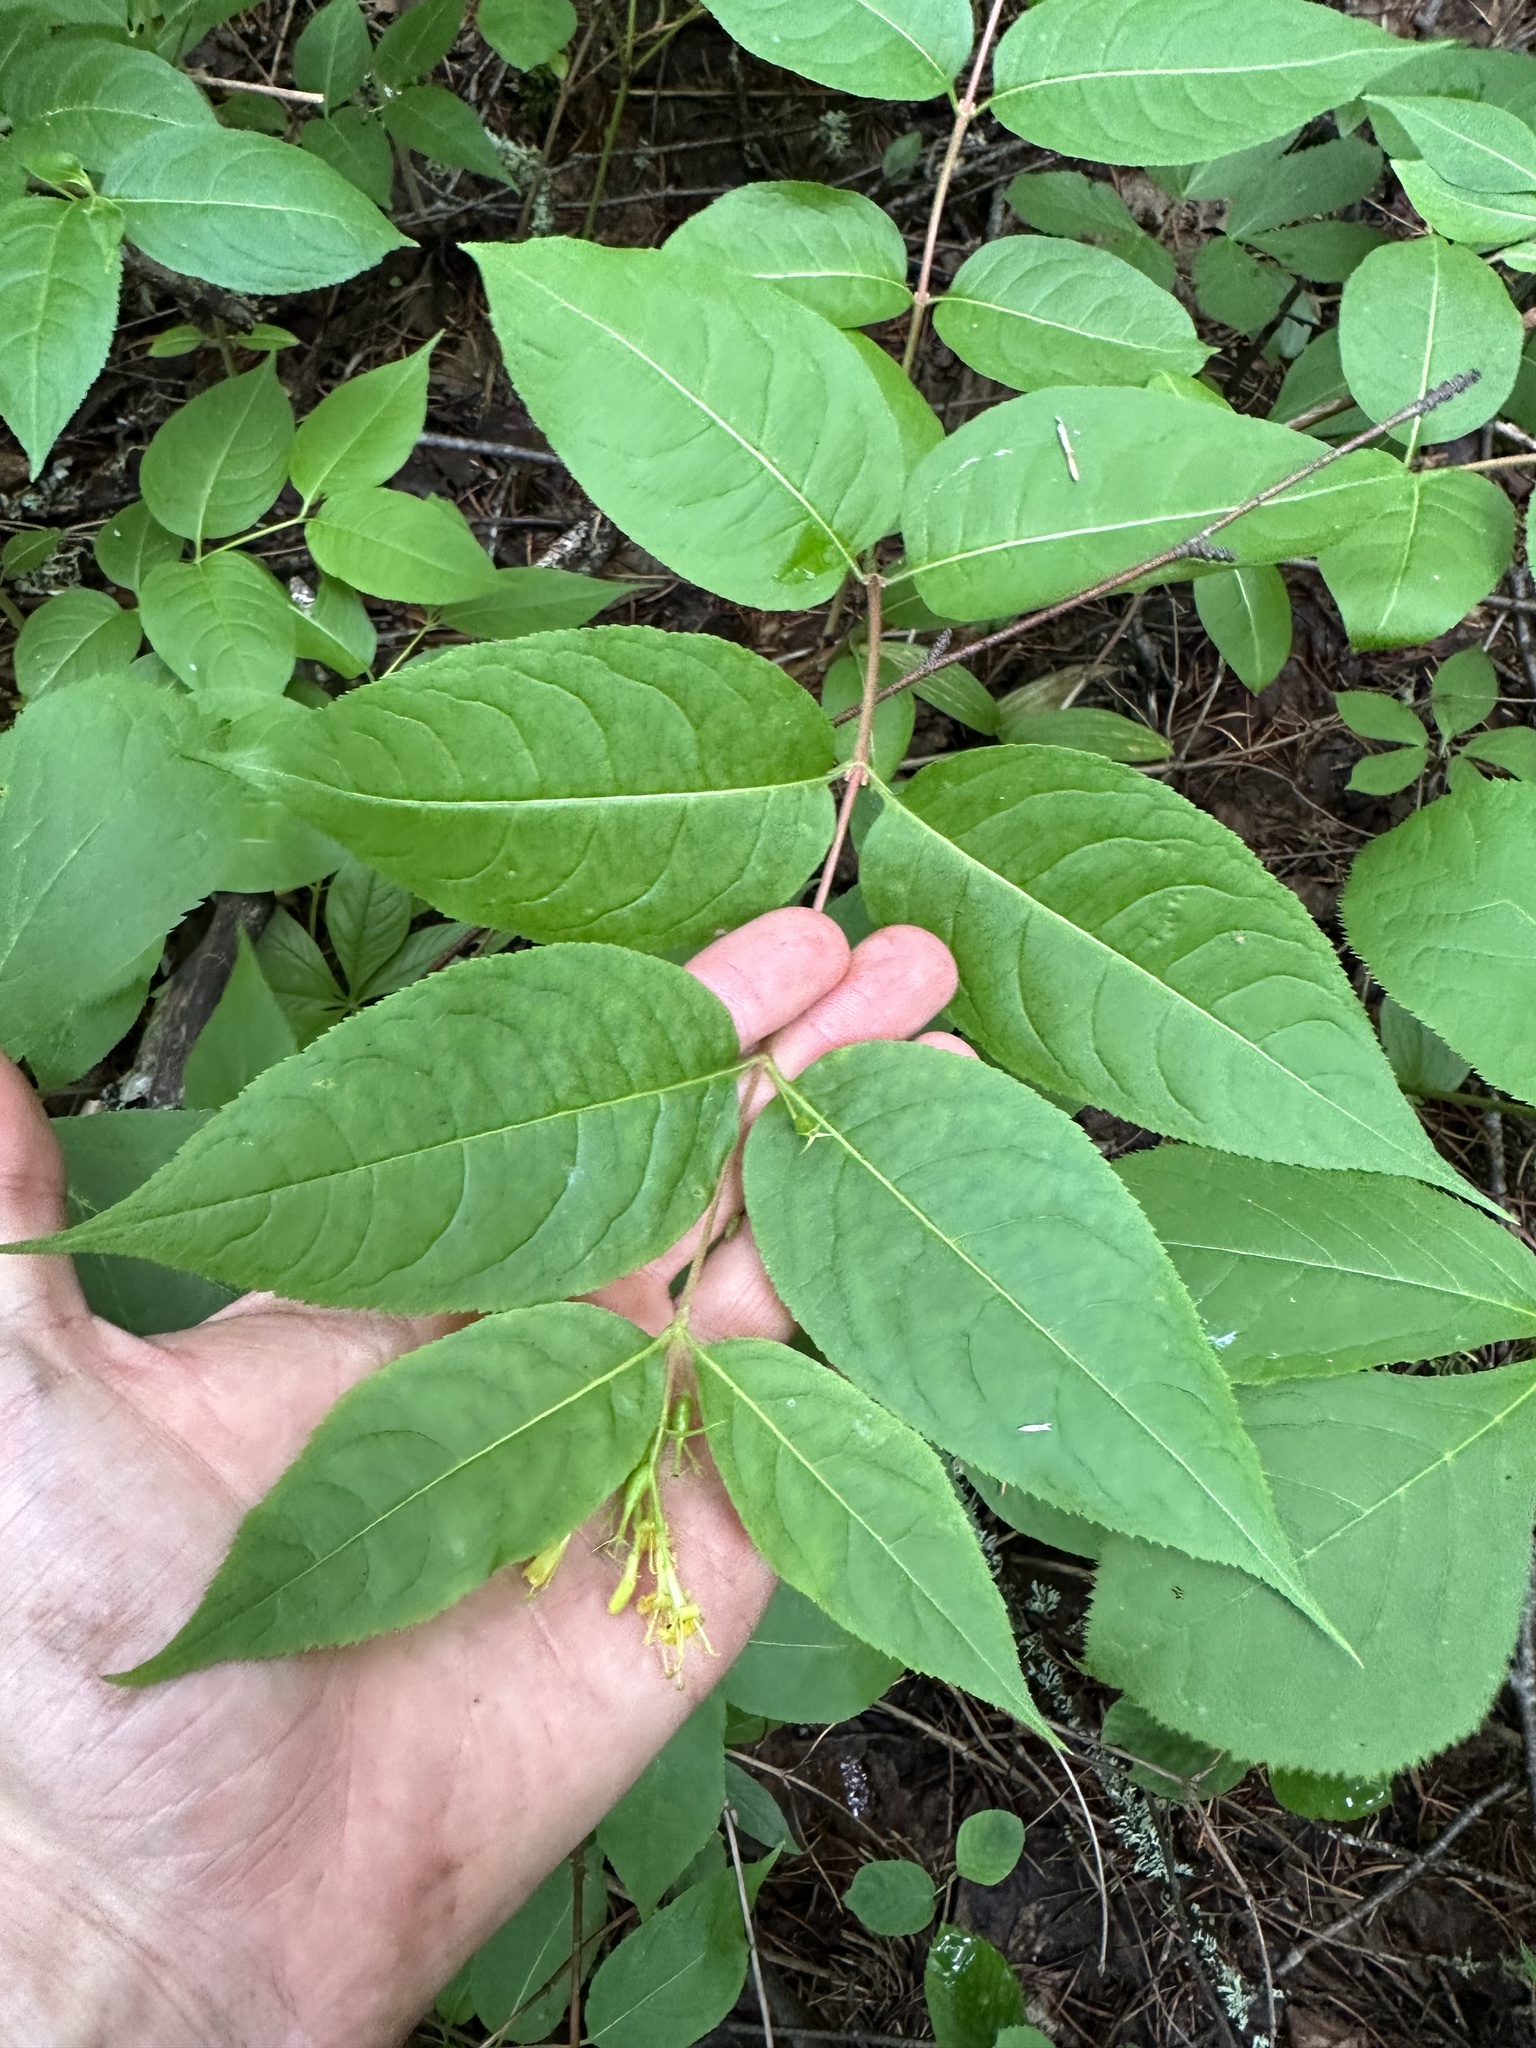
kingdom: Plantae
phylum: Tracheophyta
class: Magnoliopsida
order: Dipsacales
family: Caprifoliaceae
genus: Diervilla
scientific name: Diervilla lonicera
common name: Bush-honeysuckle
